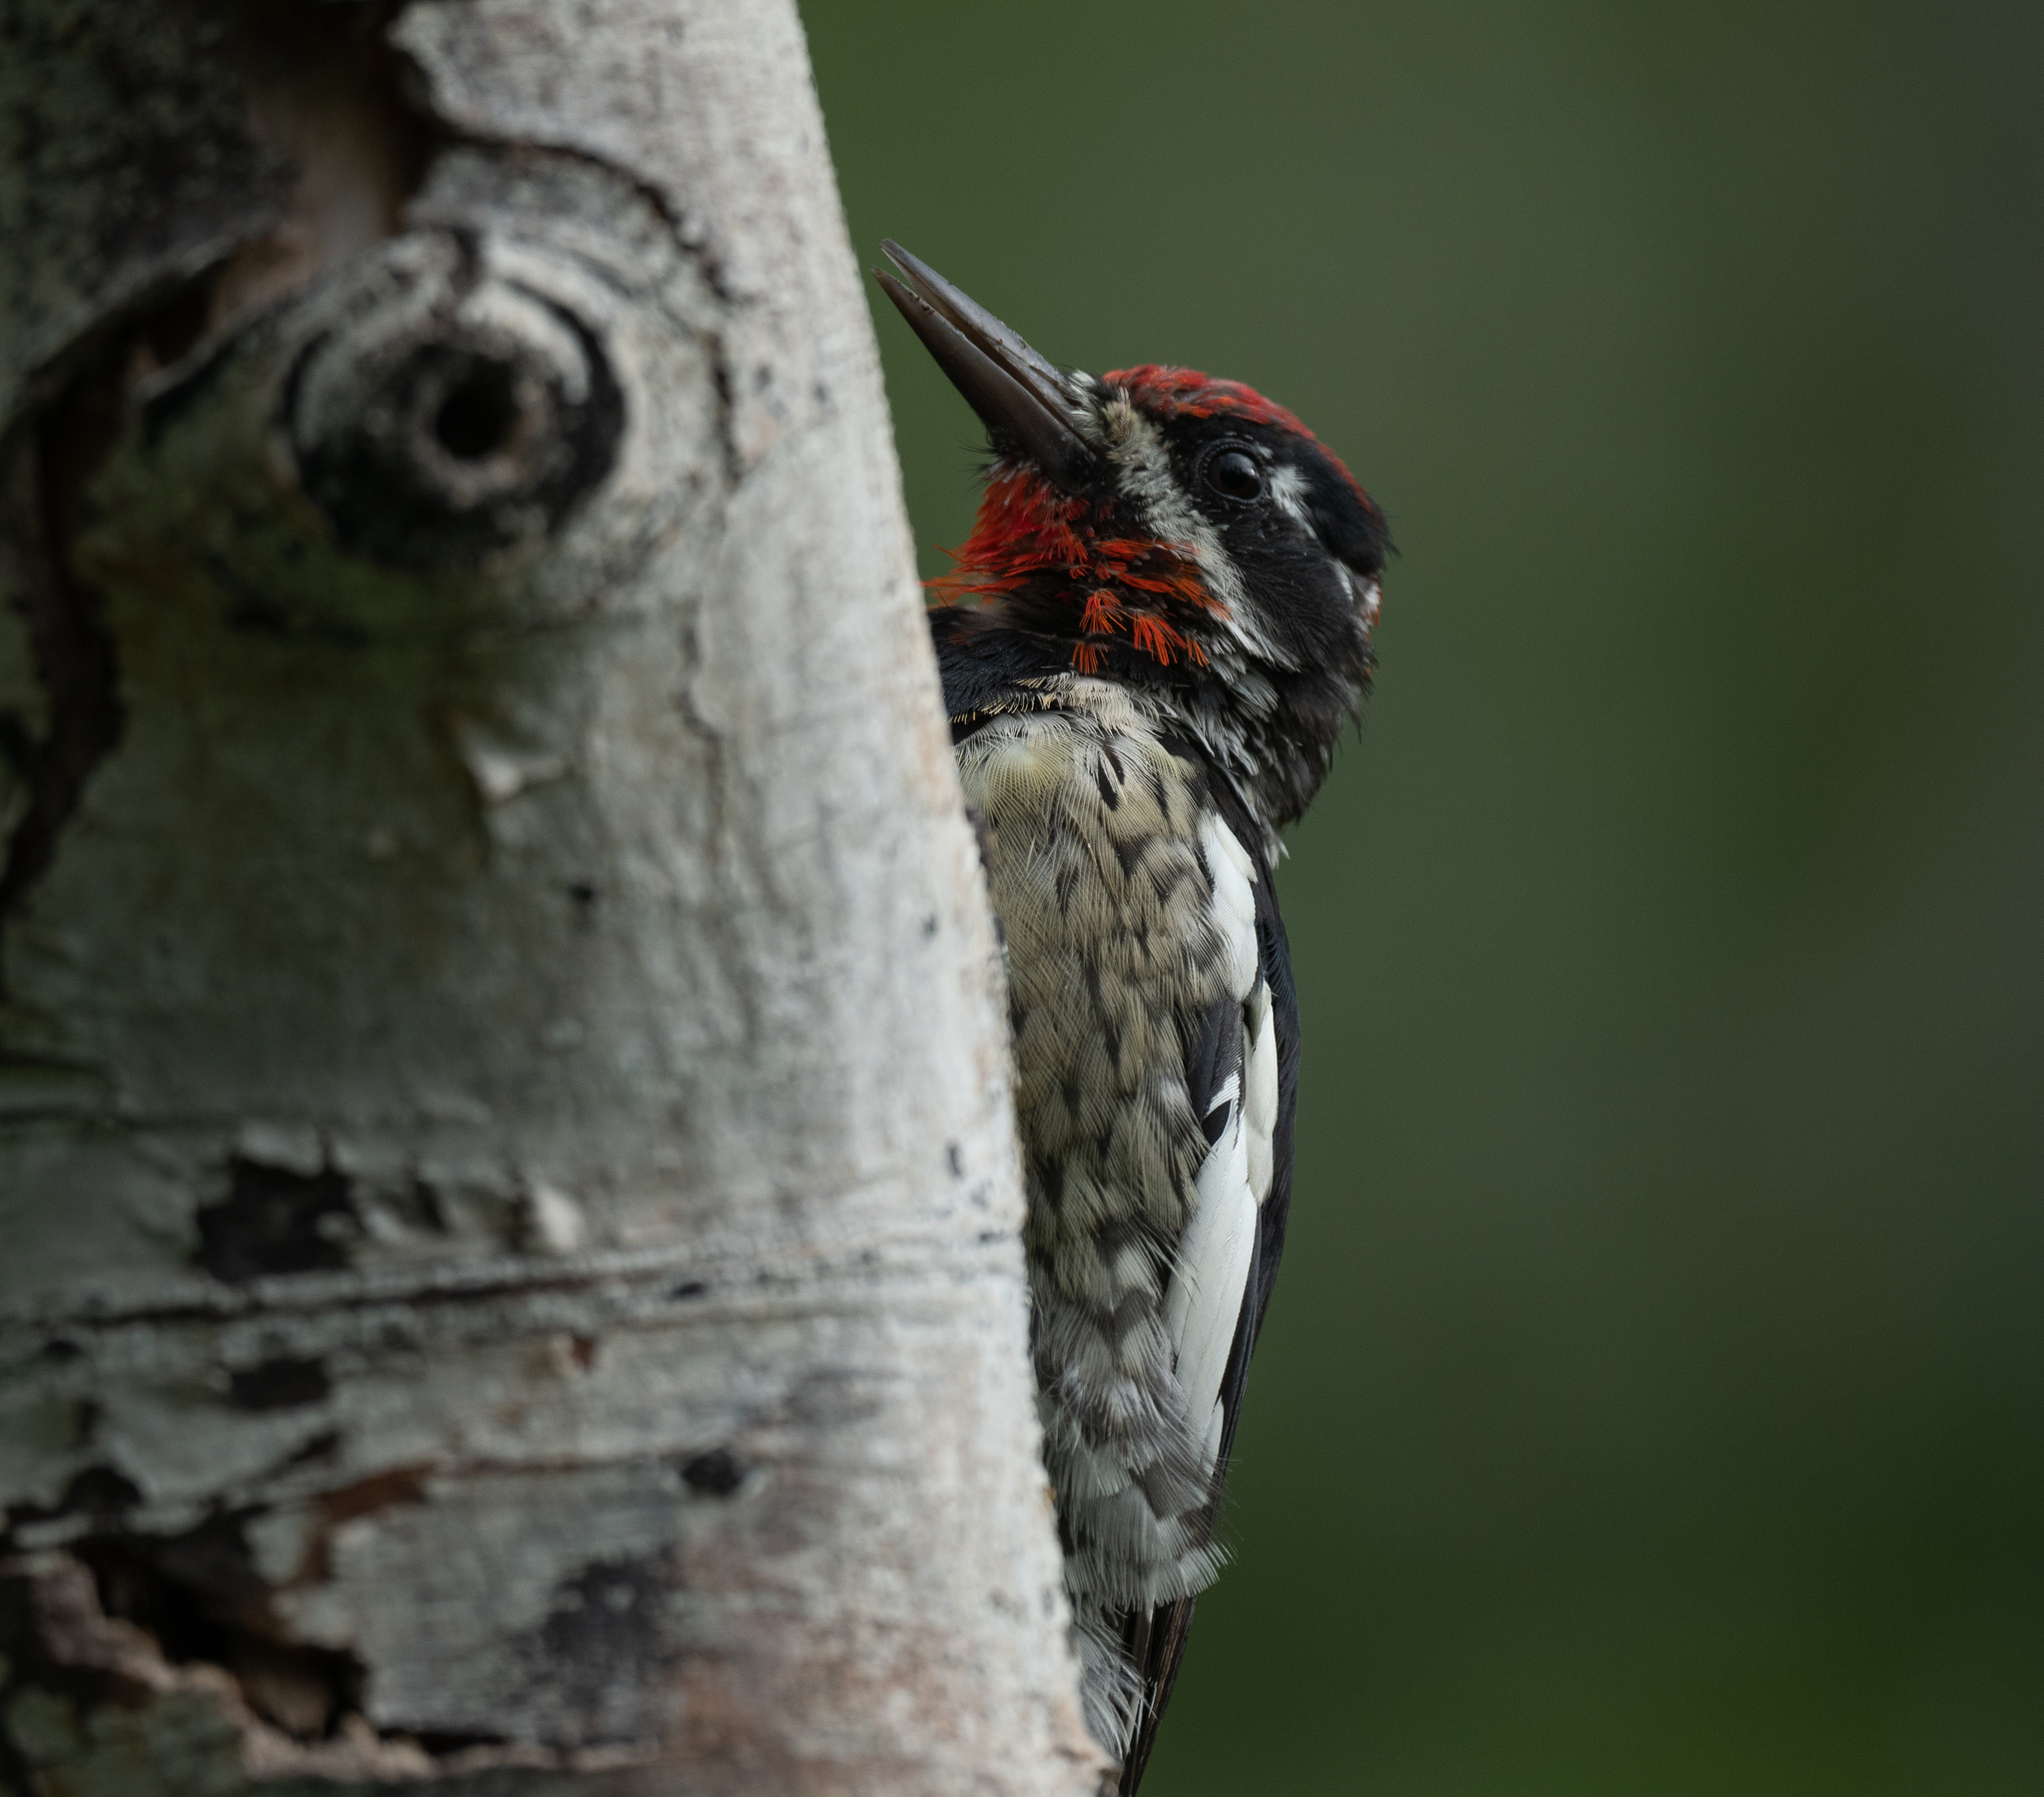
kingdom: Animalia
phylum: Chordata
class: Aves
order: Piciformes
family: Picidae
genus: Sphyrapicus
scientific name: Sphyrapicus nuchalis
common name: Red-naped sapsucker
